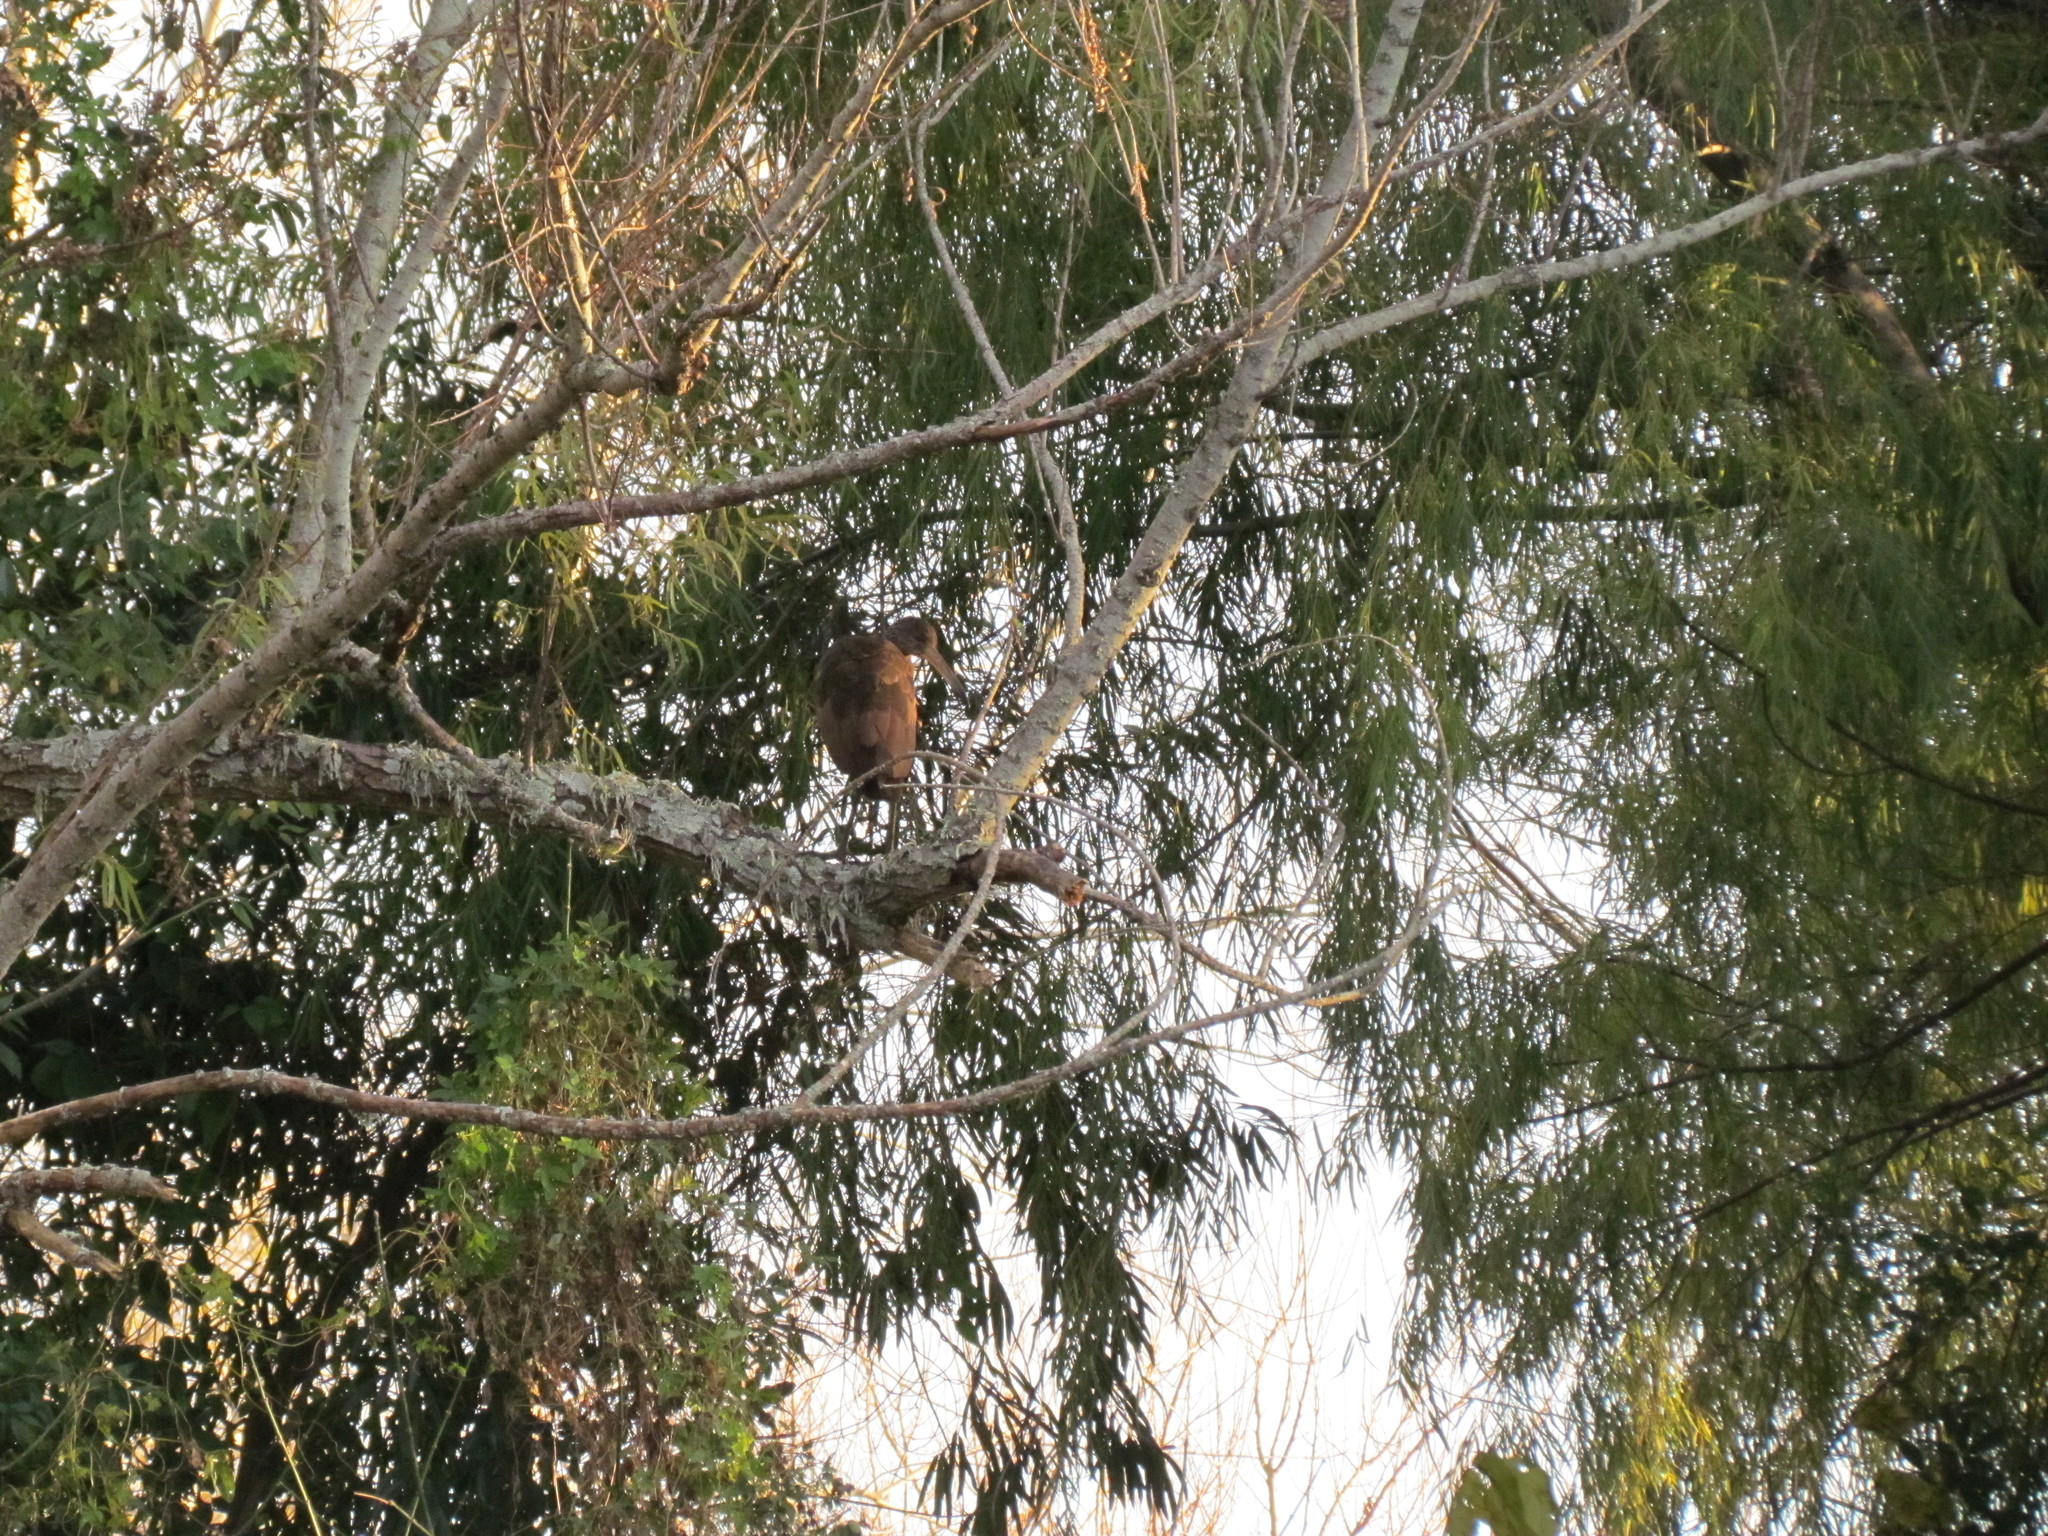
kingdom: Animalia
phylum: Chordata
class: Aves
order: Gruiformes
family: Aramidae
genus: Aramus
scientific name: Aramus guarauna
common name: Limpkin
